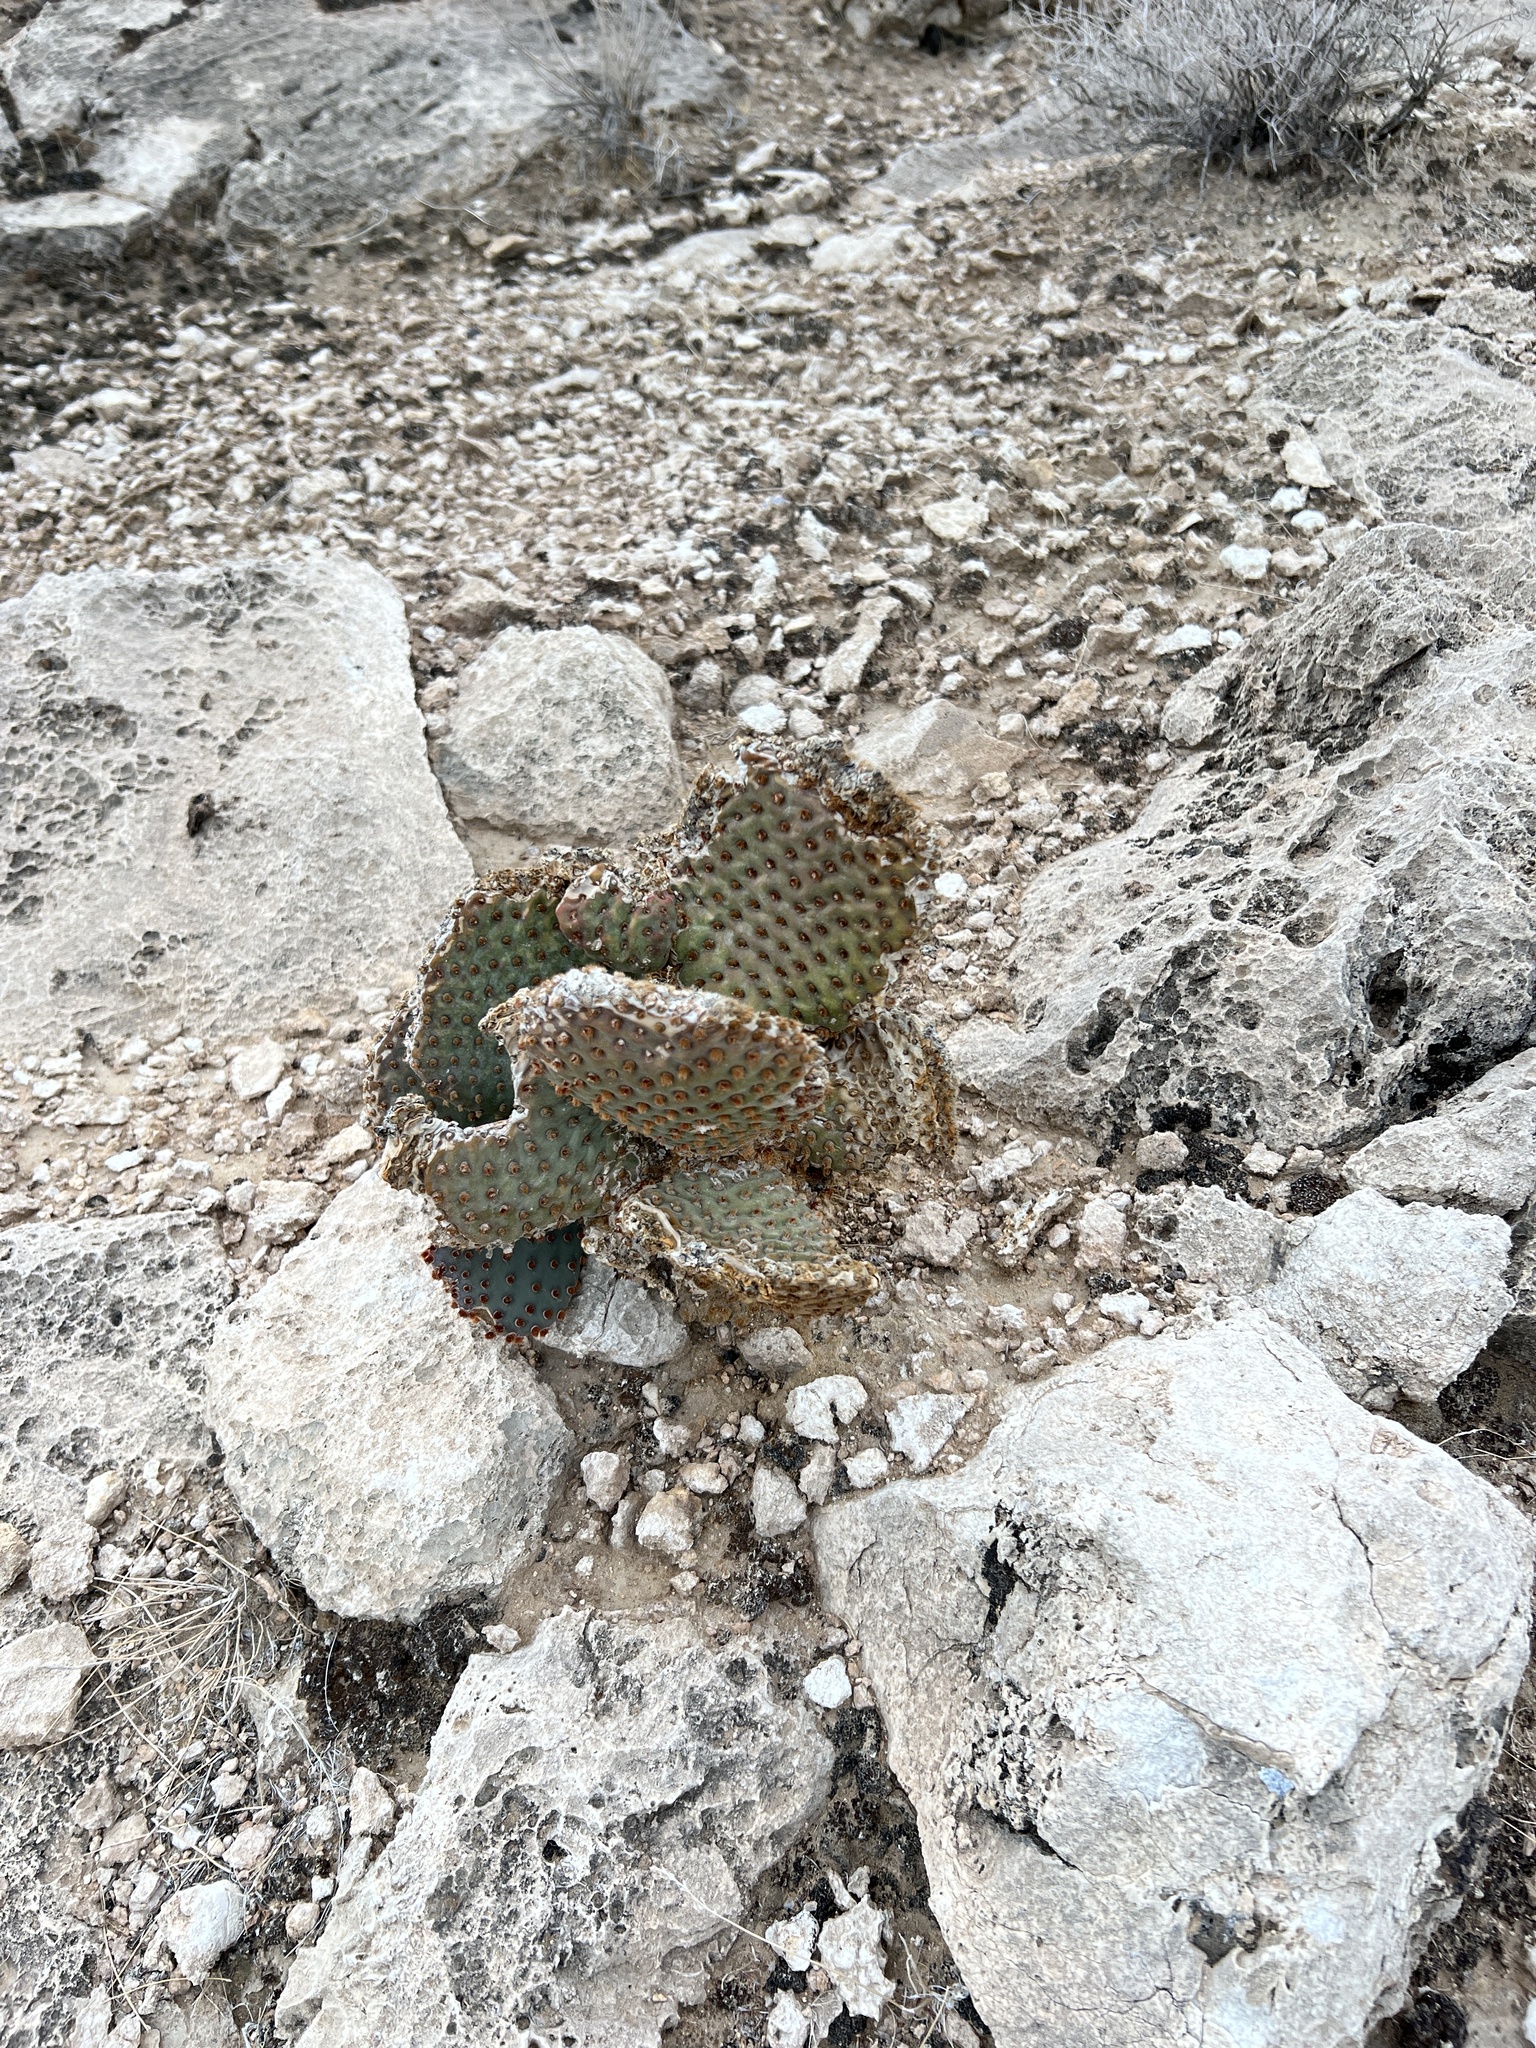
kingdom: Plantae
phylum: Tracheophyta
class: Magnoliopsida
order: Caryophyllales
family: Cactaceae
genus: Opuntia
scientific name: Opuntia basilaris
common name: Beavertail prickly-pear
